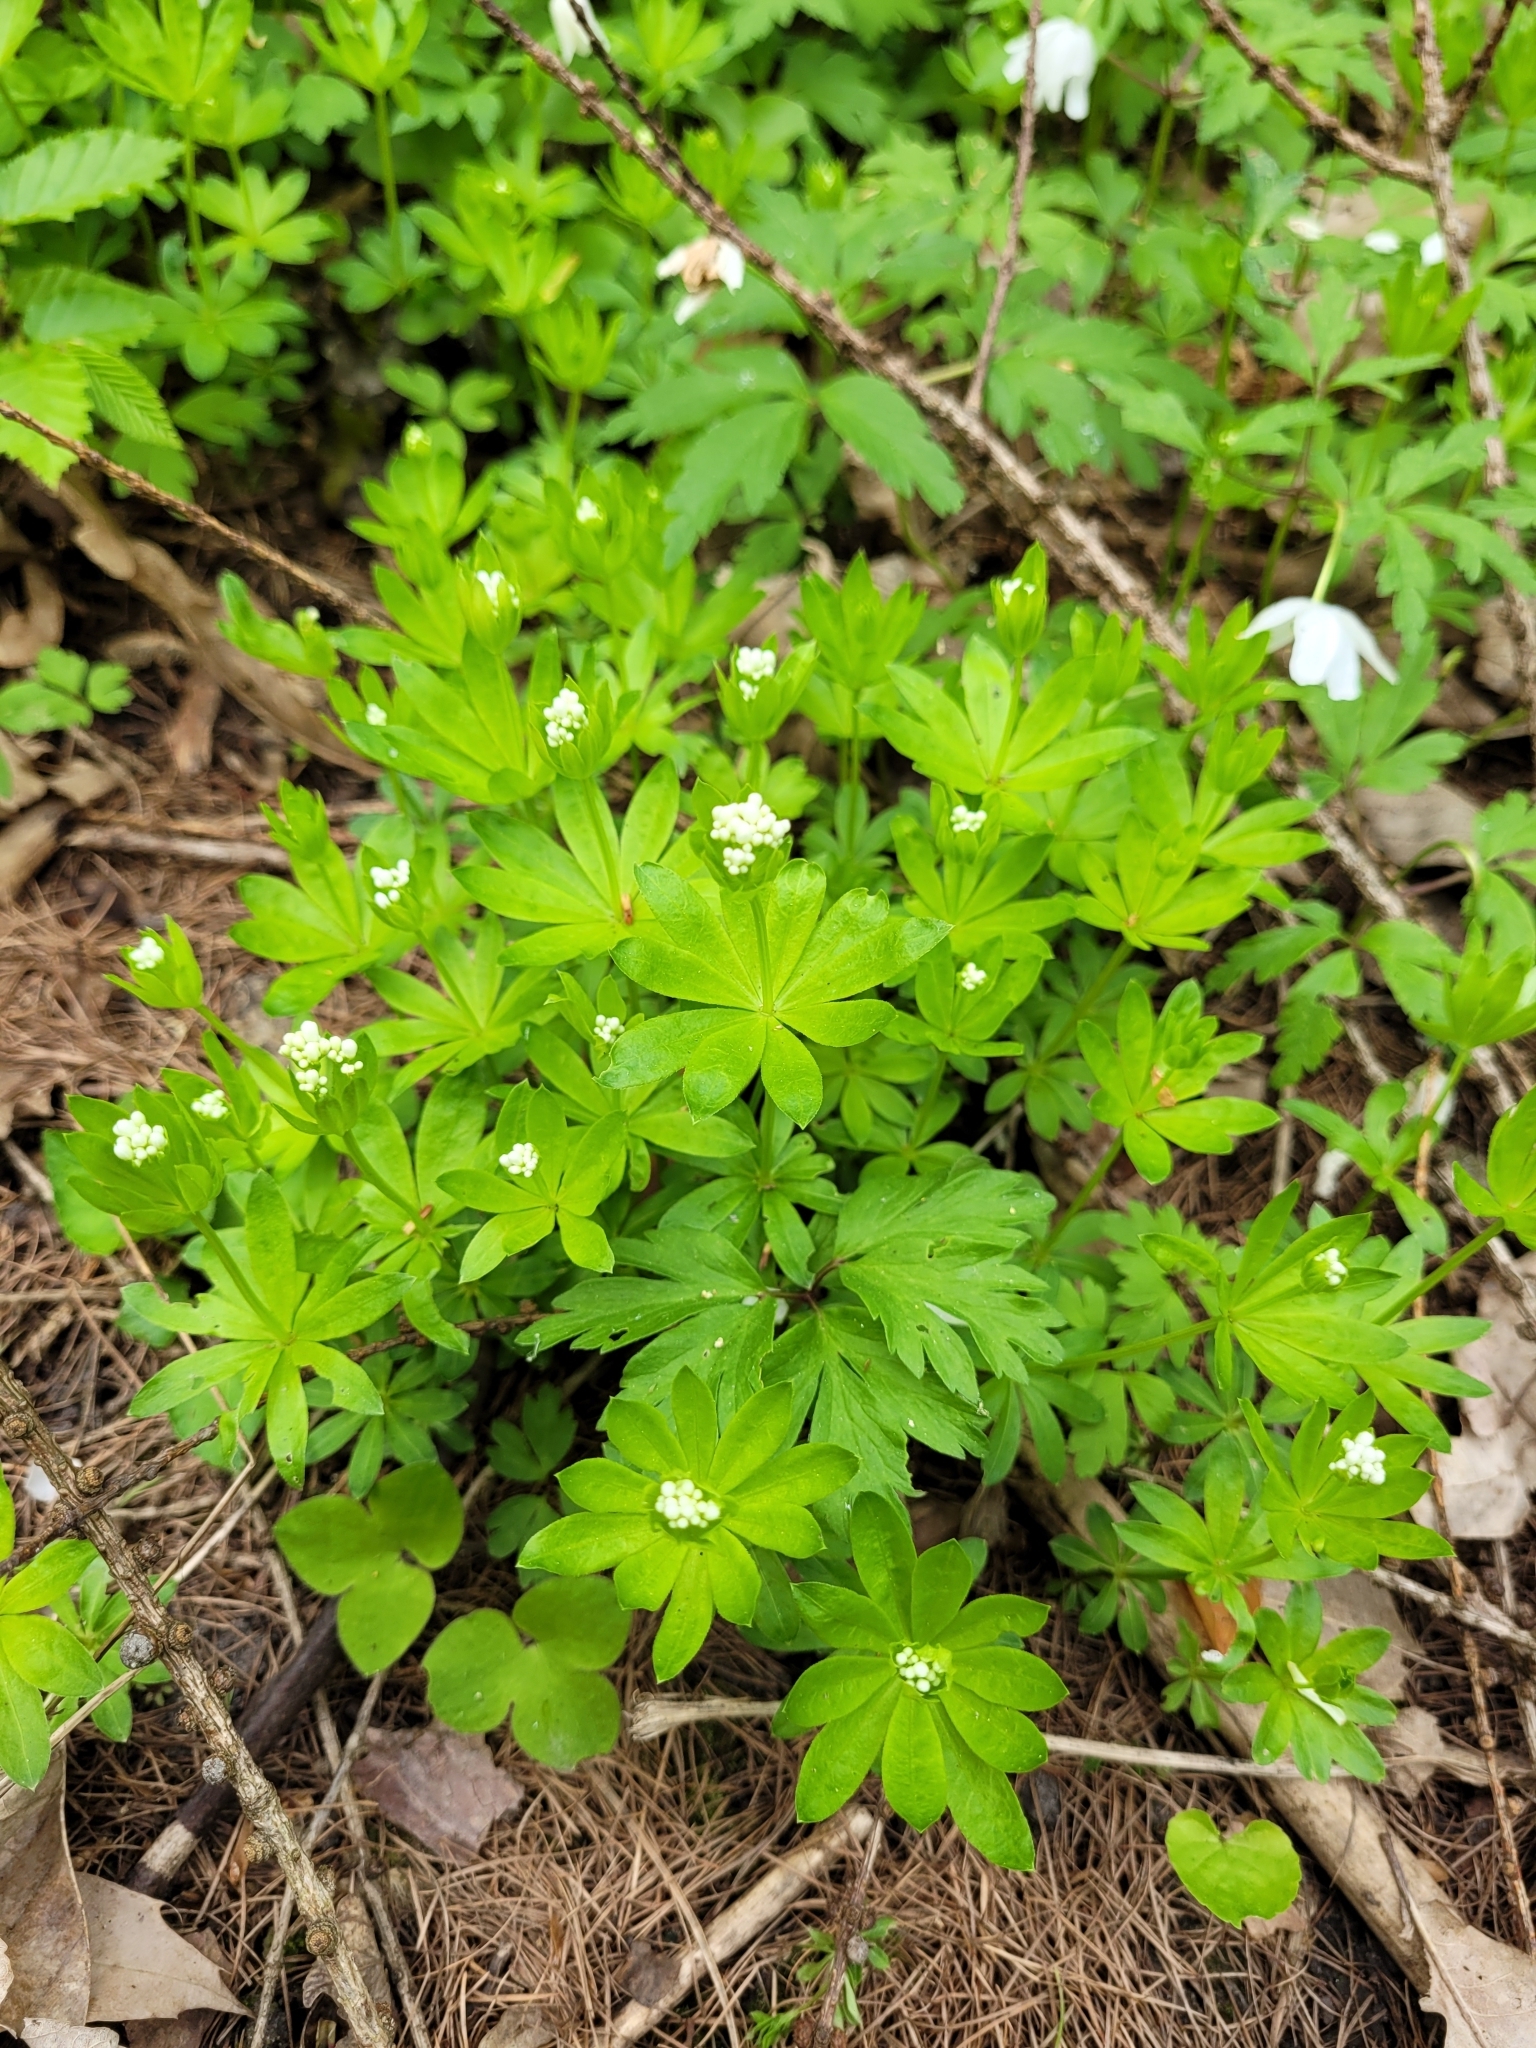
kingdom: Plantae
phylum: Tracheophyta
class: Magnoliopsida
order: Gentianales
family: Rubiaceae
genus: Galium
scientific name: Galium odoratum
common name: Sweet woodruff
